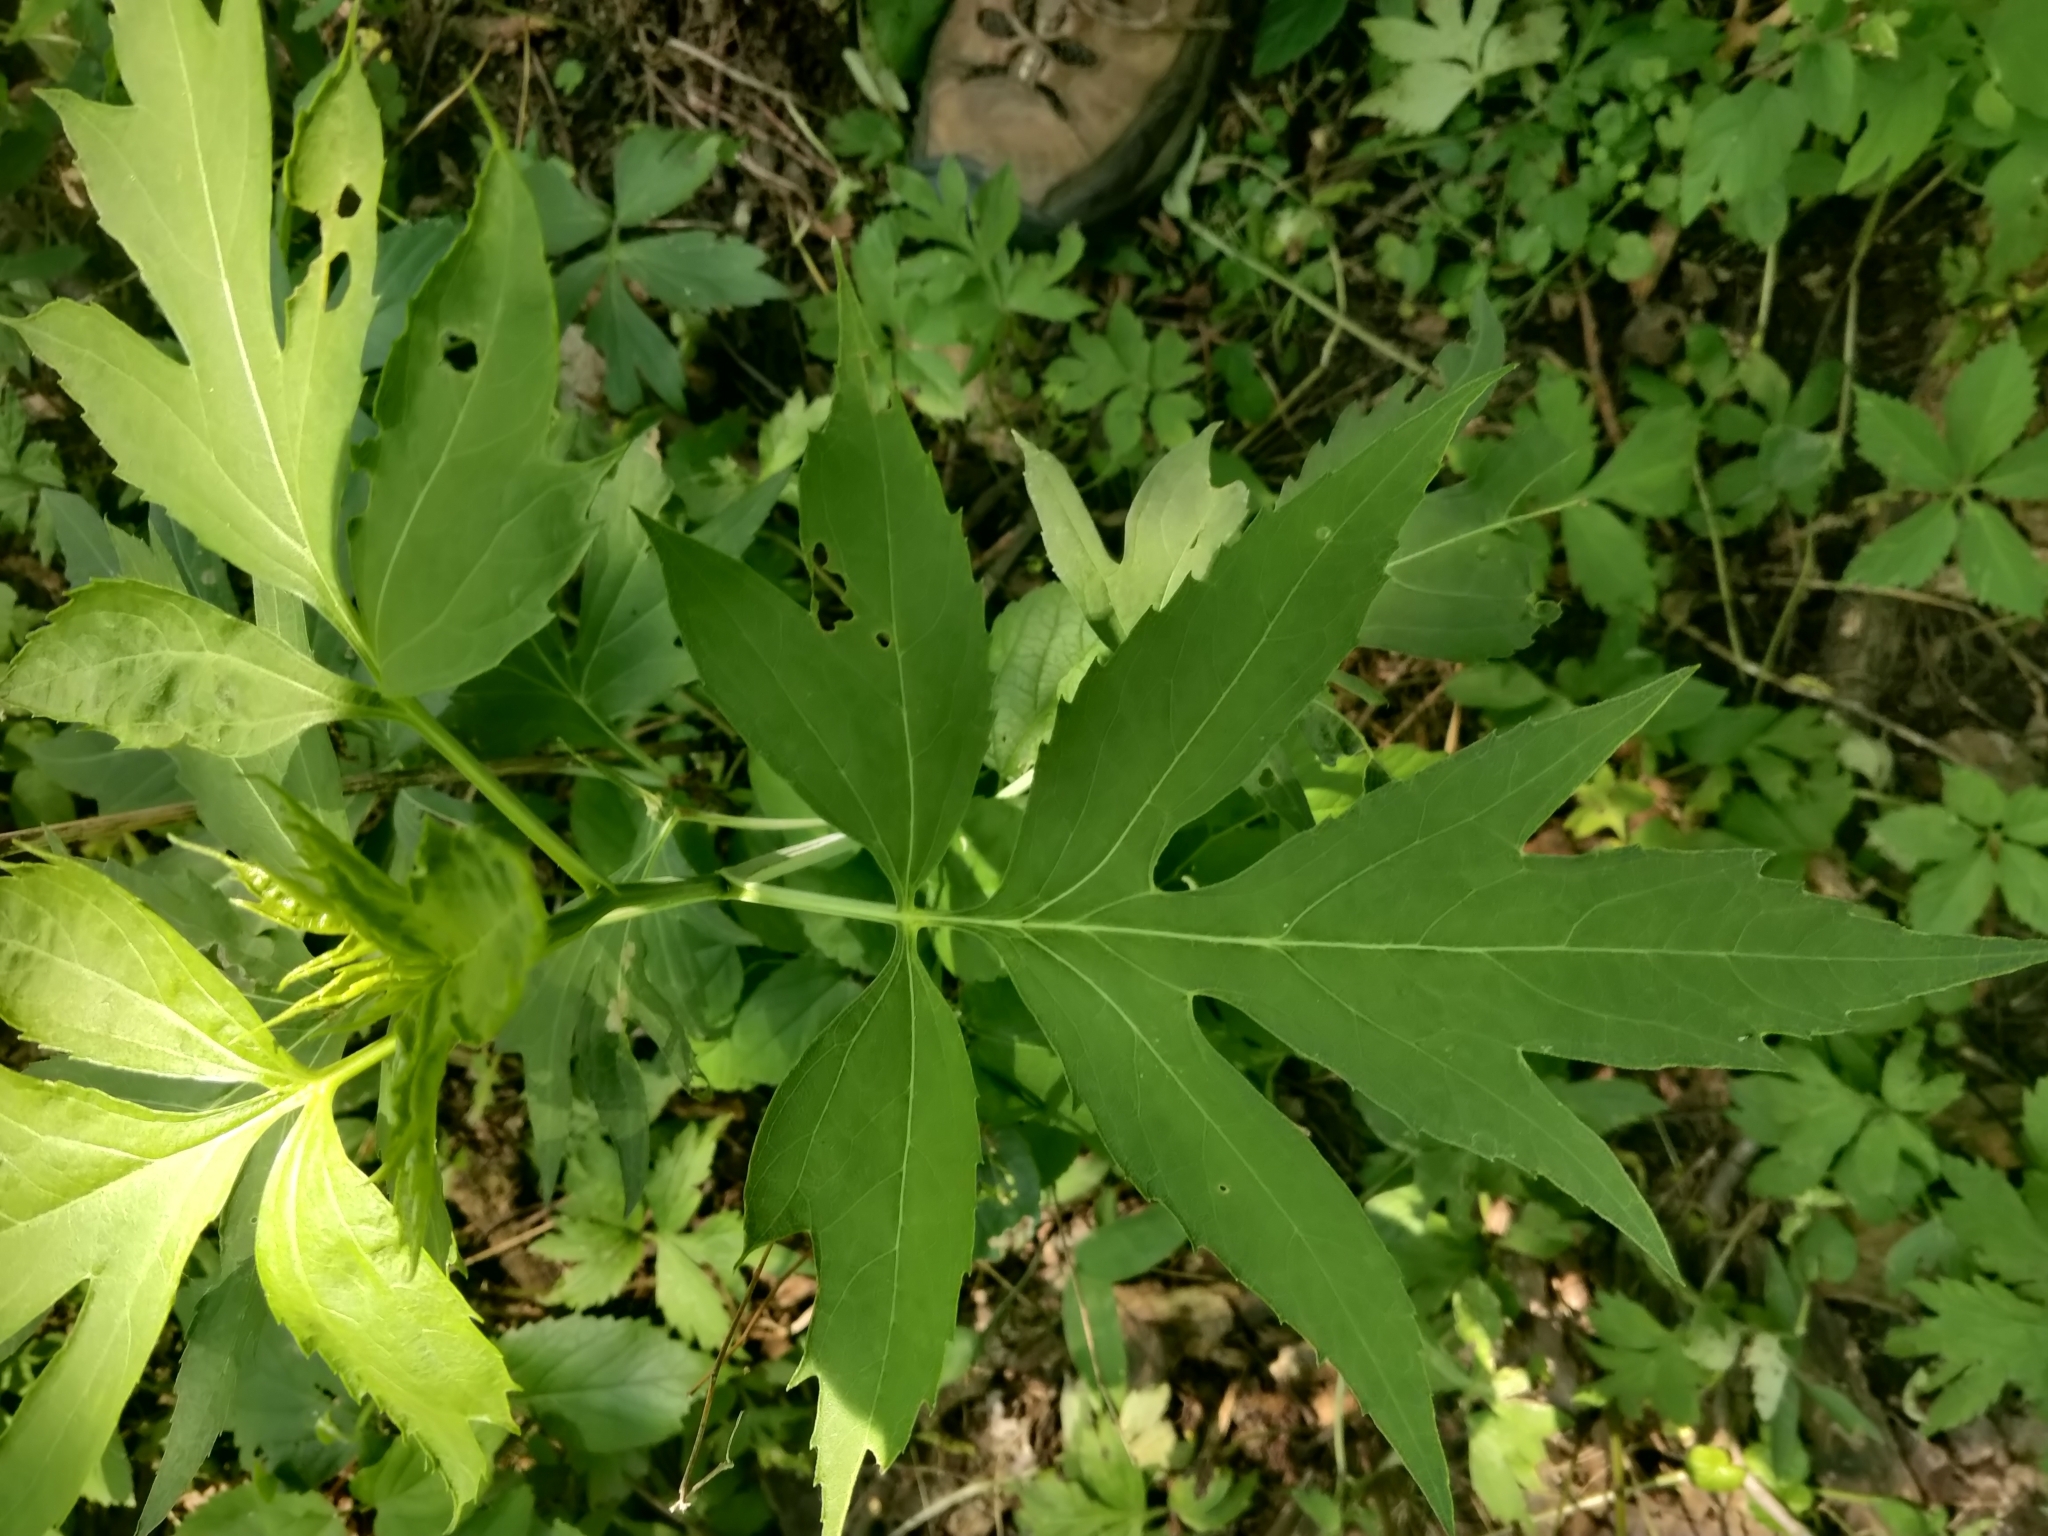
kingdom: Plantae
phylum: Tracheophyta
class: Magnoliopsida
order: Asterales
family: Asteraceae
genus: Rudbeckia
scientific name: Rudbeckia laciniata
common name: Coneflower
